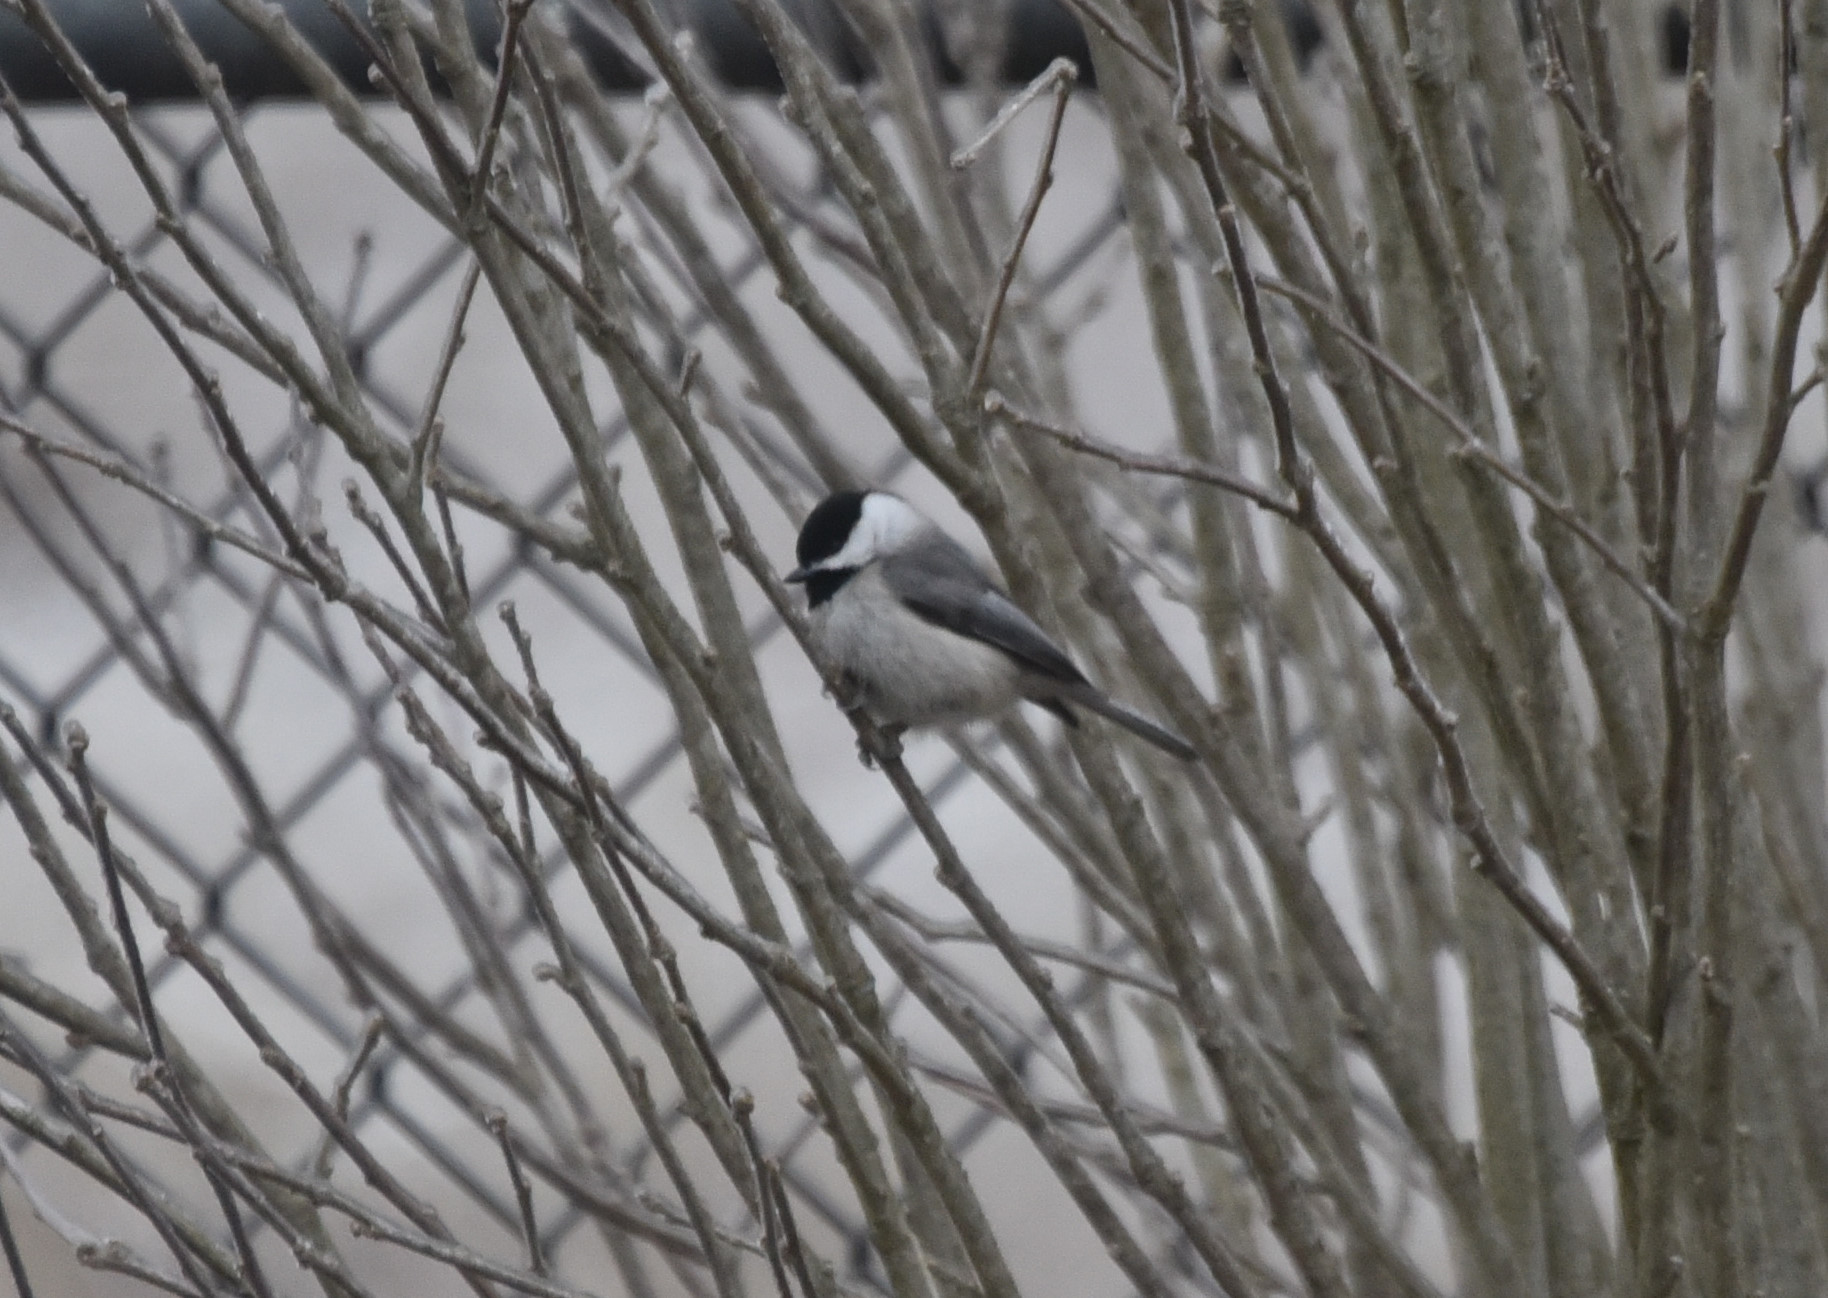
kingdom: Animalia
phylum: Chordata
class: Aves
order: Passeriformes
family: Paridae
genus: Poecile
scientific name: Poecile carolinensis
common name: Carolina chickadee
